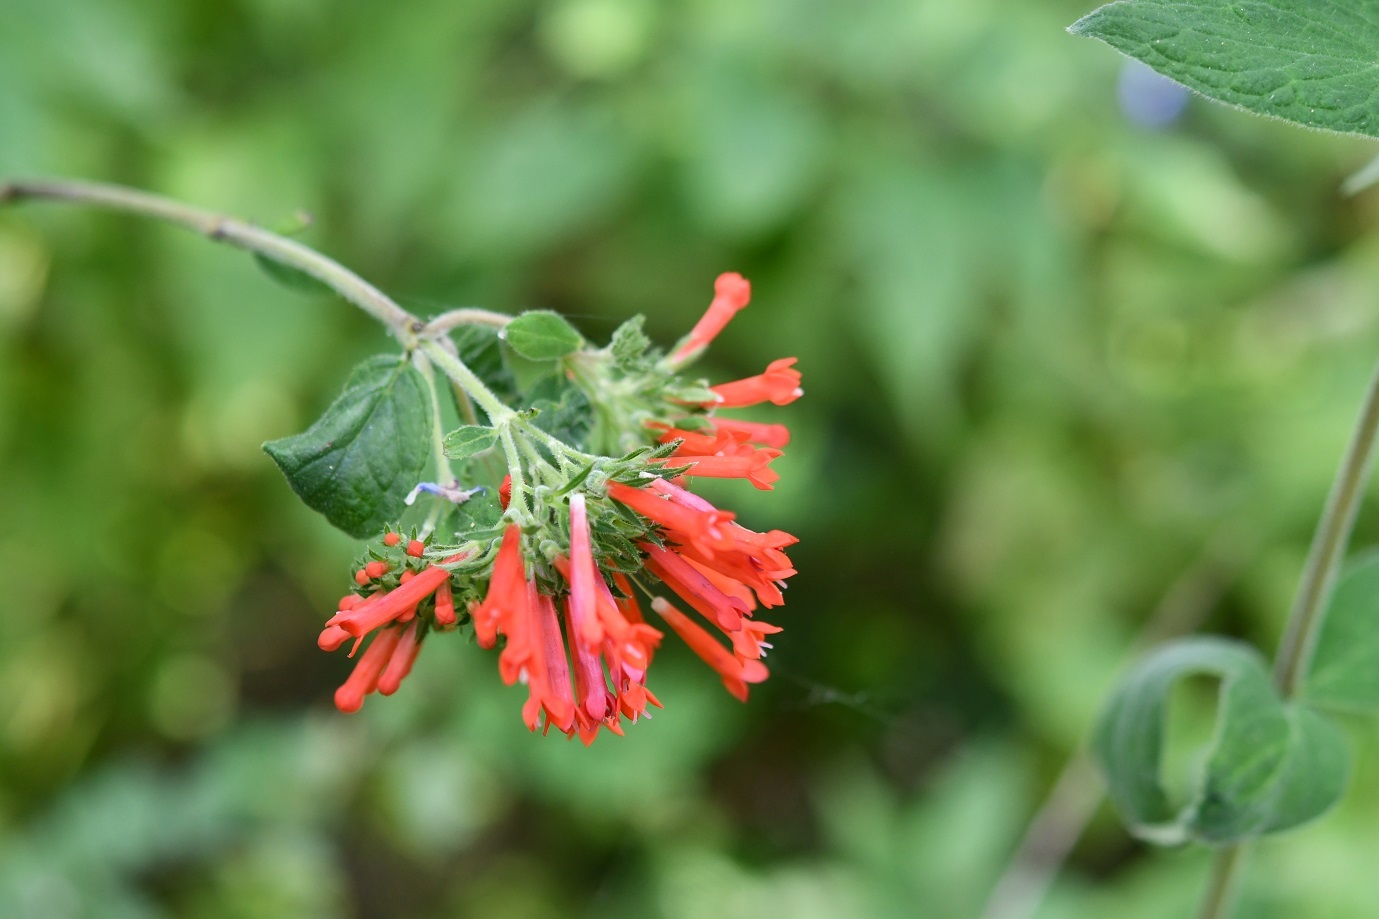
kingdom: Plantae
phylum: Tracheophyta
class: Magnoliopsida
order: Gentianales
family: Rubiaceae
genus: Bouvardia
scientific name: Bouvardia leiantha
